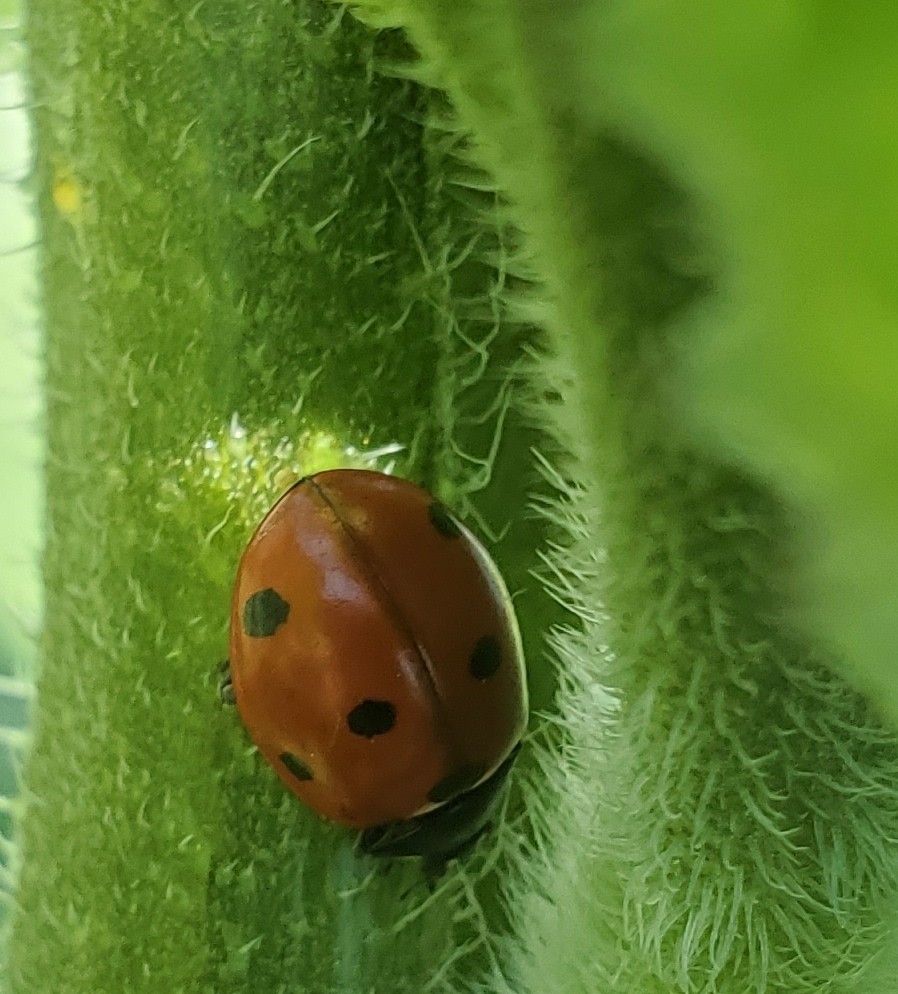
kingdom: Animalia
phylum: Arthropoda
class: Insecta
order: Coleoptera
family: Coccinellidae
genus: Coccinella
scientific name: Coccinella septempunctata
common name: Sevenspotted lady beetle
